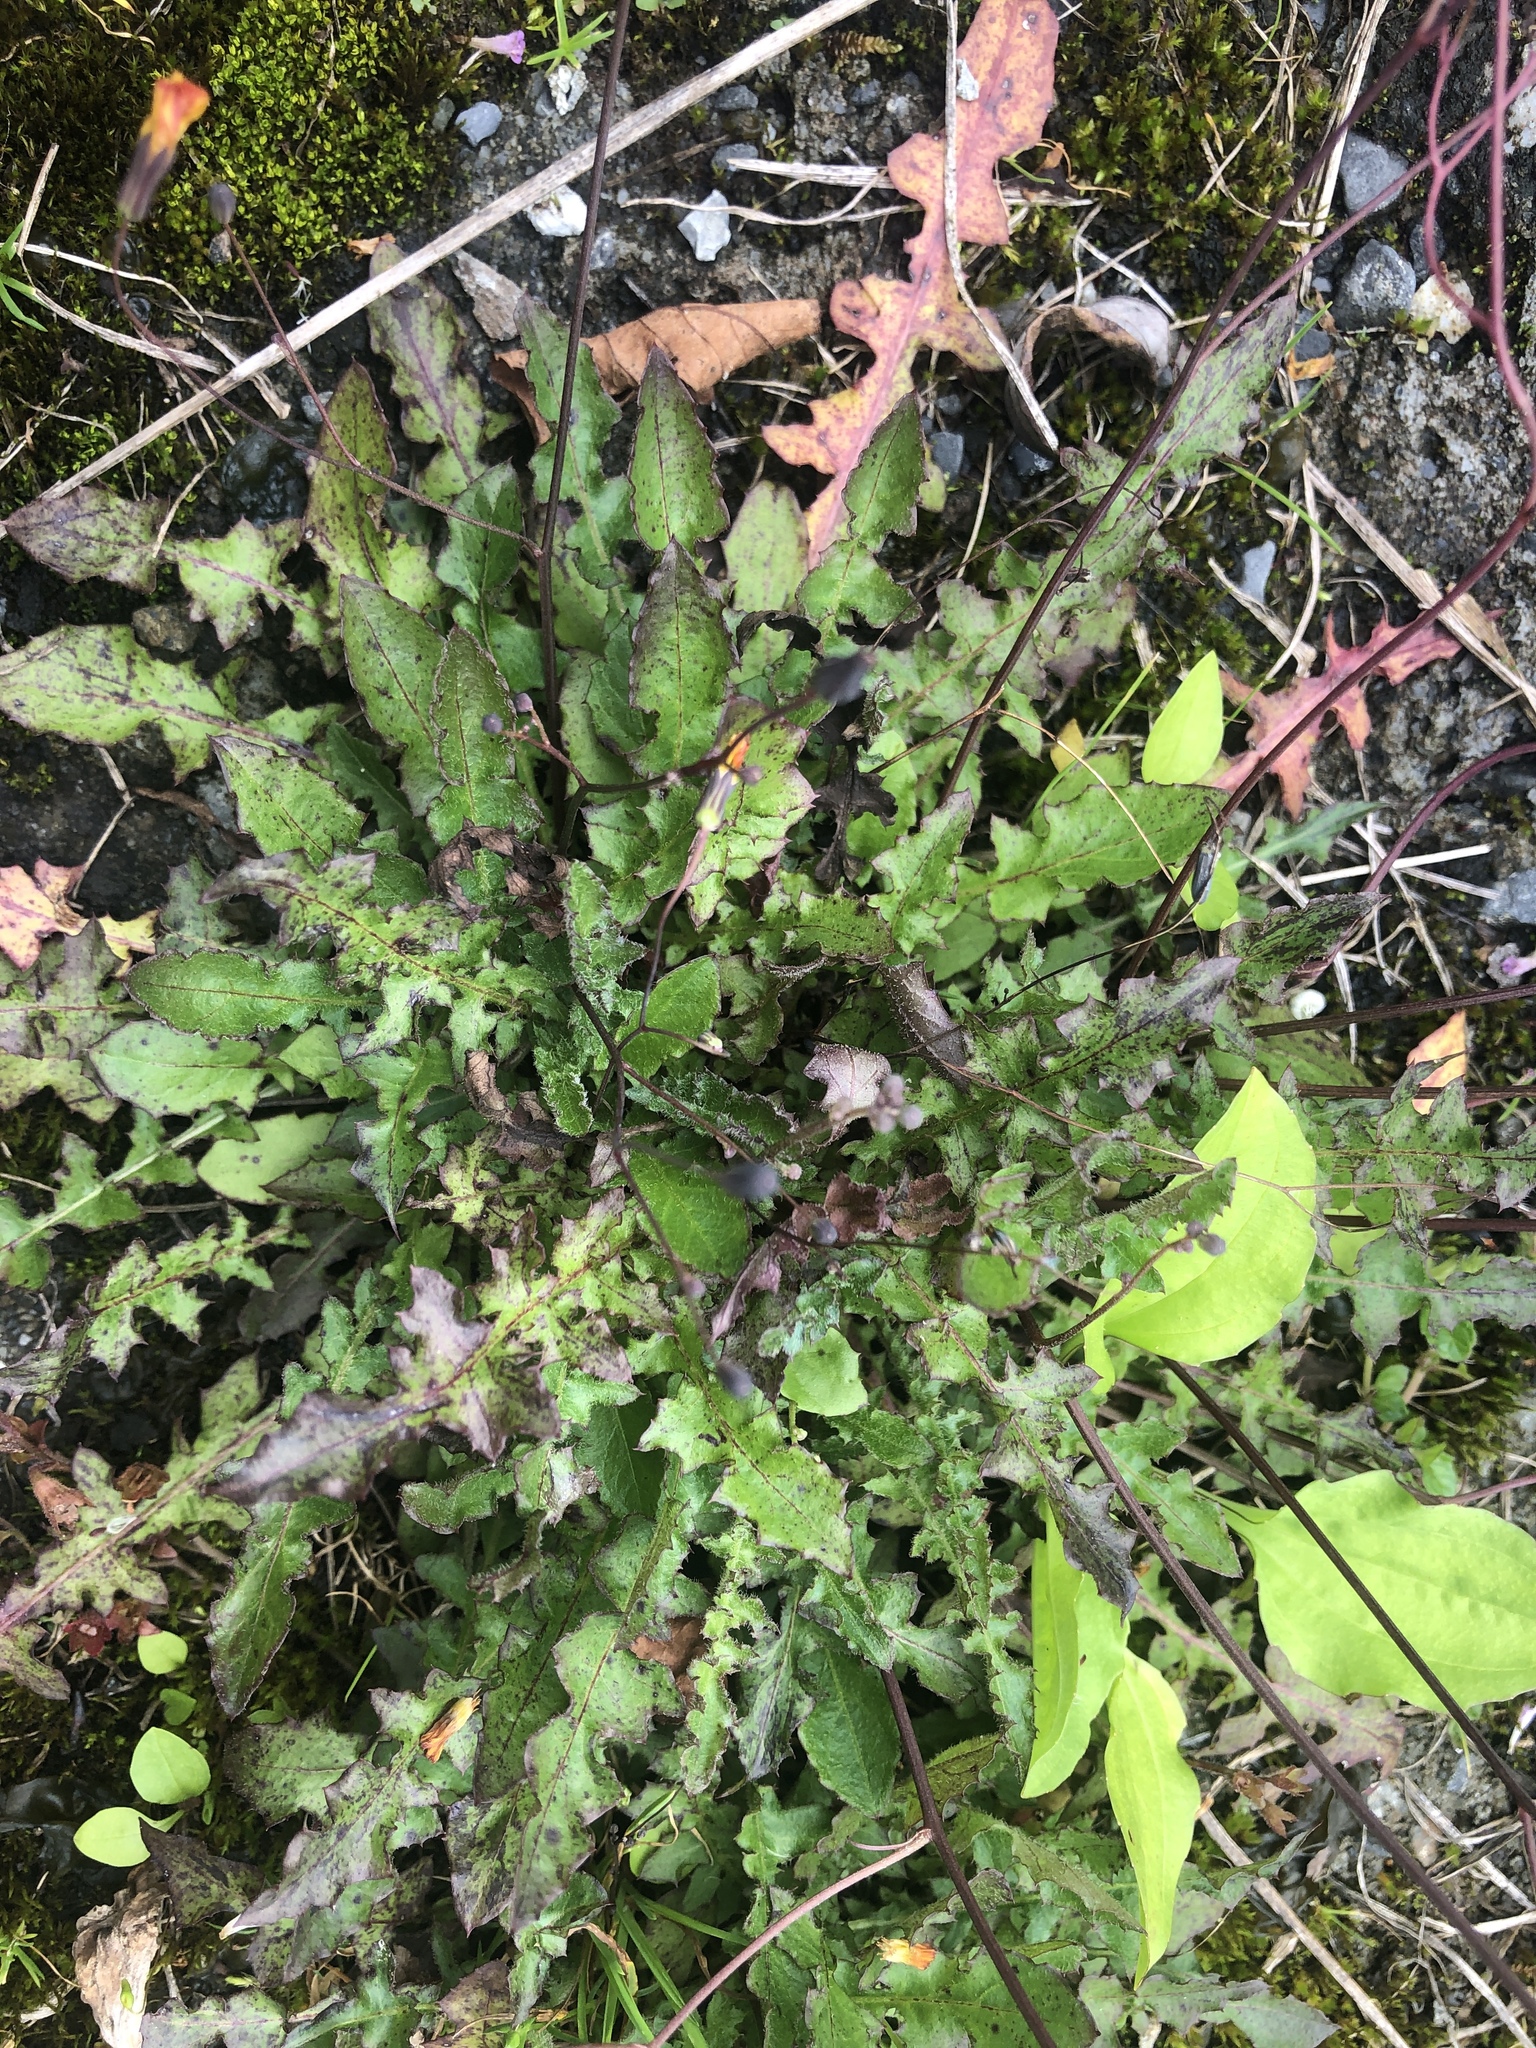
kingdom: Plantae
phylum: Tracheophyta
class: Magnoliopsida
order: Asterales
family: Asteraceae
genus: Youngia
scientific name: Youngia japonica
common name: Oriental false hawksbeard
